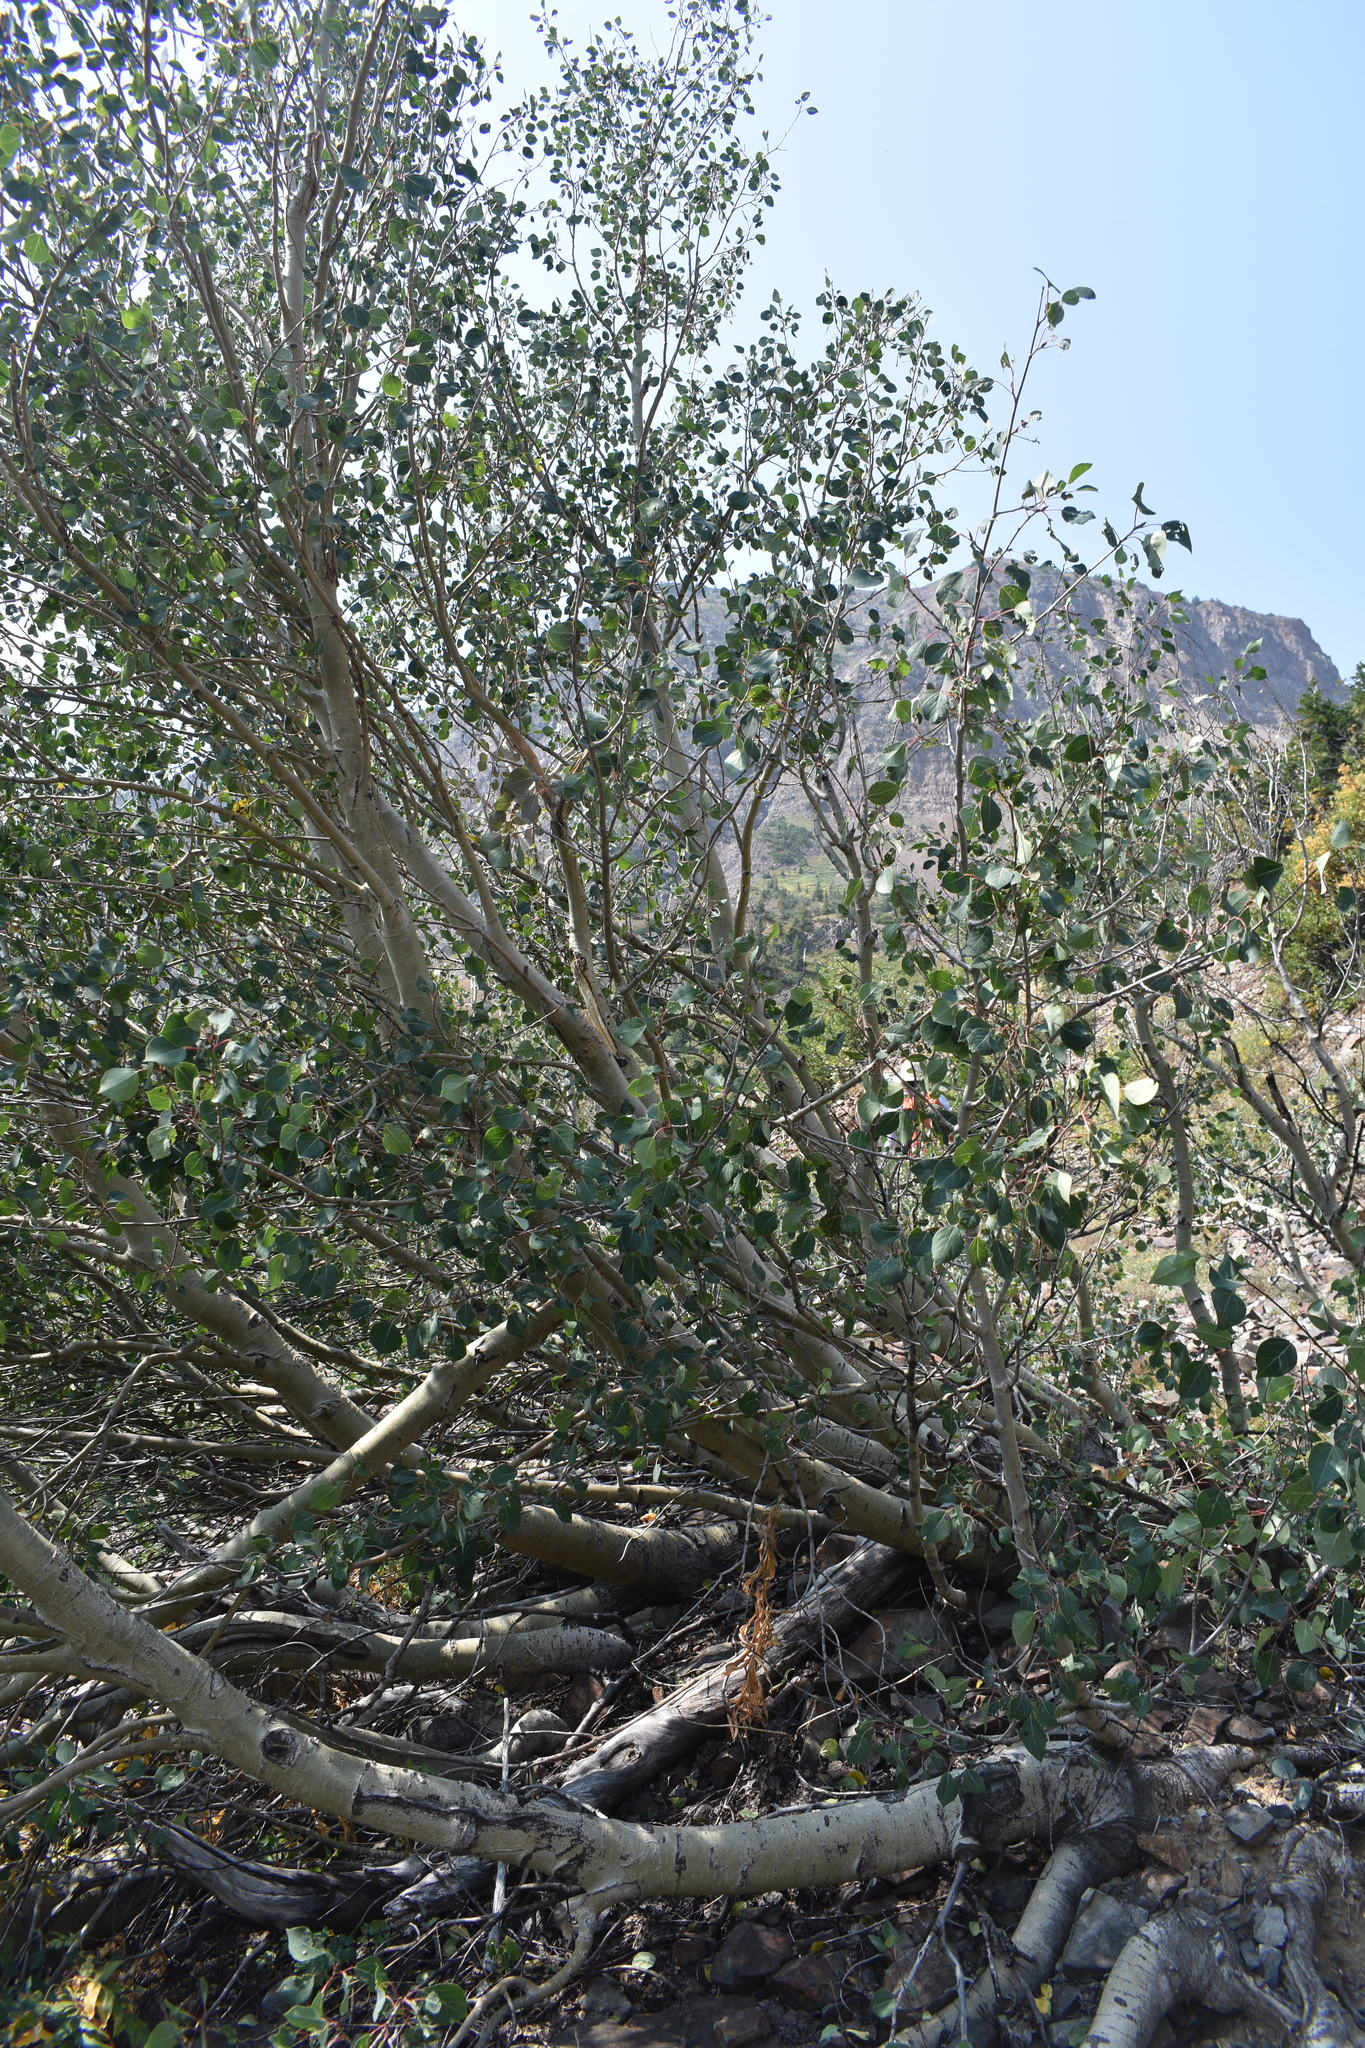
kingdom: Plantae
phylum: Tracheophyta
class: Magnoliopsida
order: Malpighiales
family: Salicaceae
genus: Populus
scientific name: Populus tremuloides
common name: Quaking aspen
